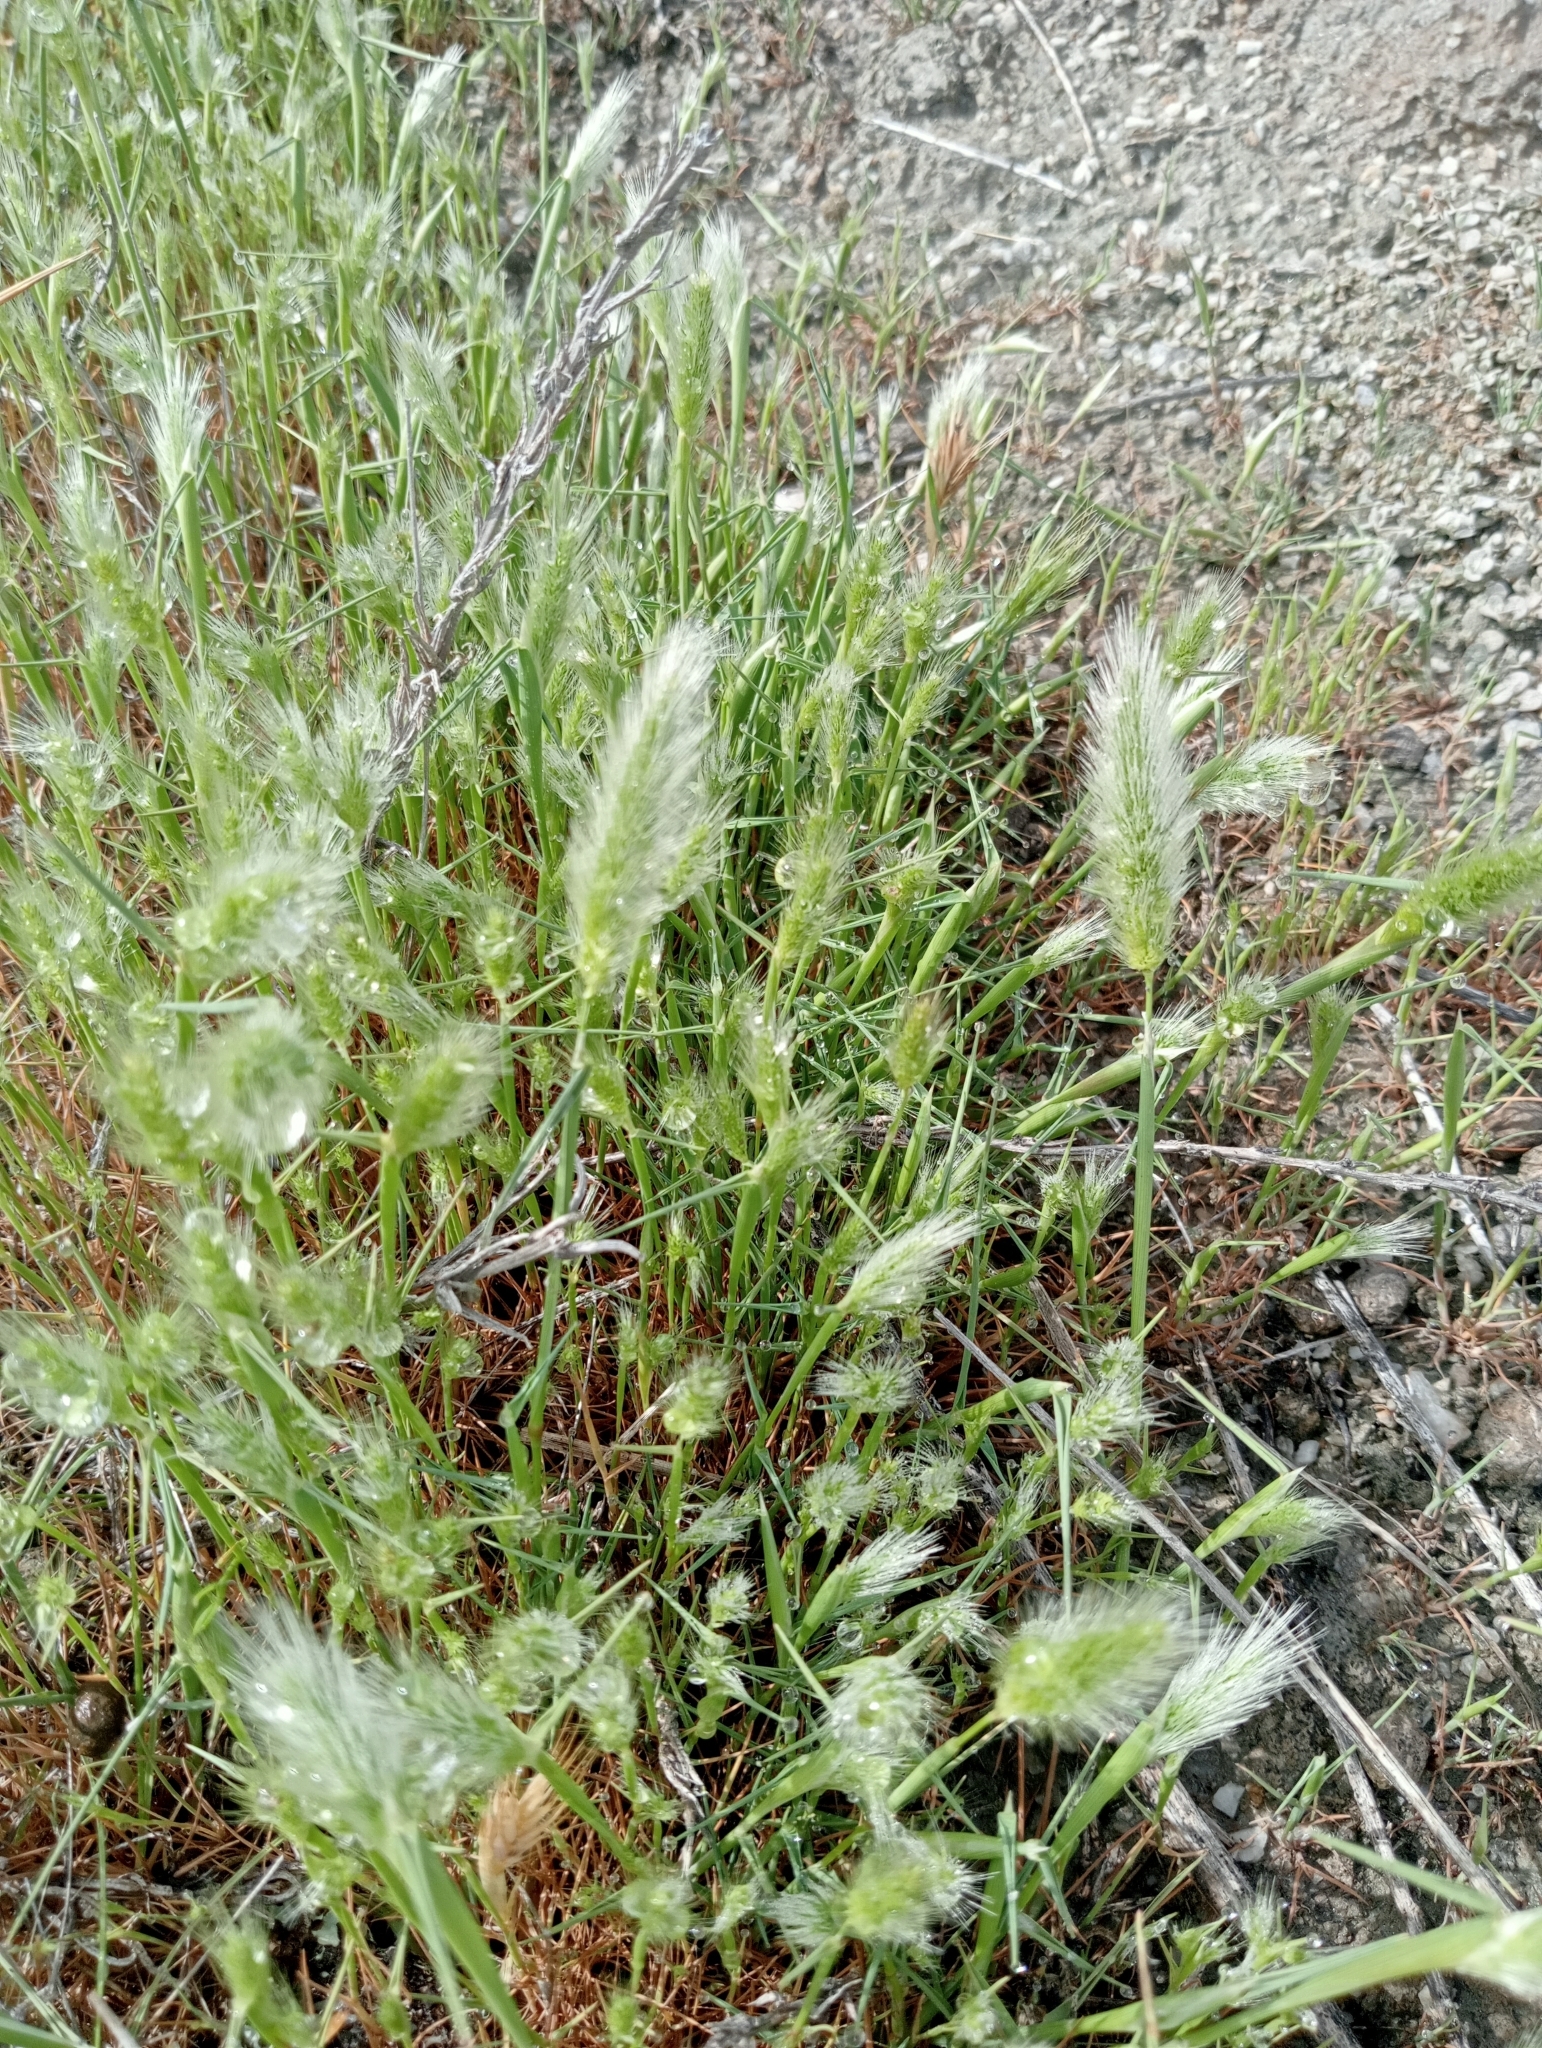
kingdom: Plantae
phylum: Tracheophyta
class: Liliopsida
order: Poales
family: Poaceae
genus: Polypogon
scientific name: Polypogon monspeliensis
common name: Annual rabbitsfoot grass
